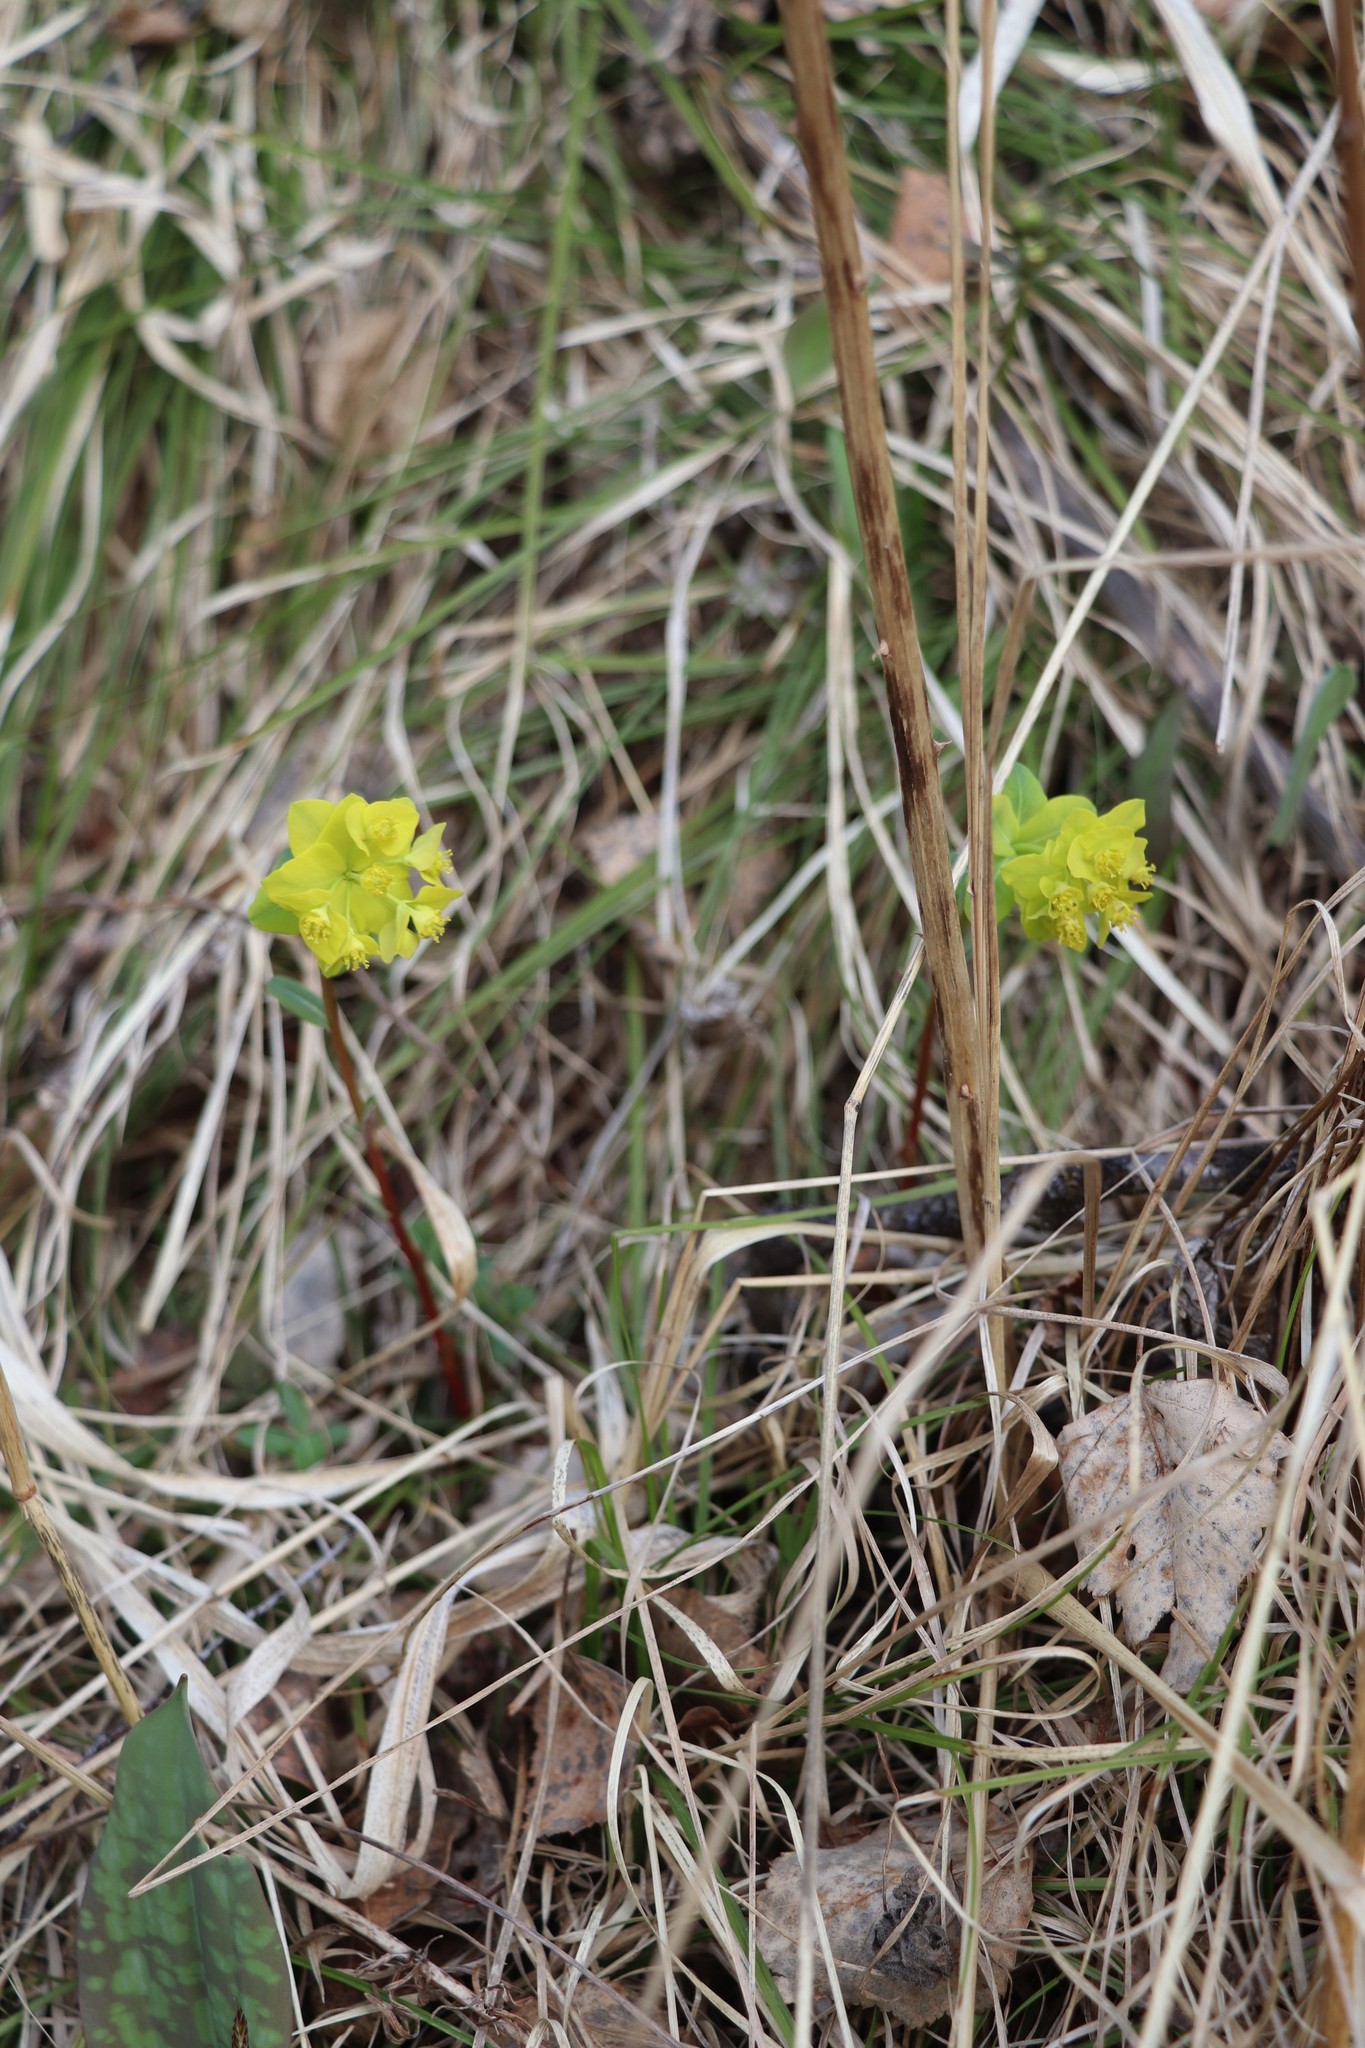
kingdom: Plantae
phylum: Tracheophyta
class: Magnoliopsida
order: Malpighiales
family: Euphorbiaceae
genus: Euphorbia
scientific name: Euphorbia altaica
